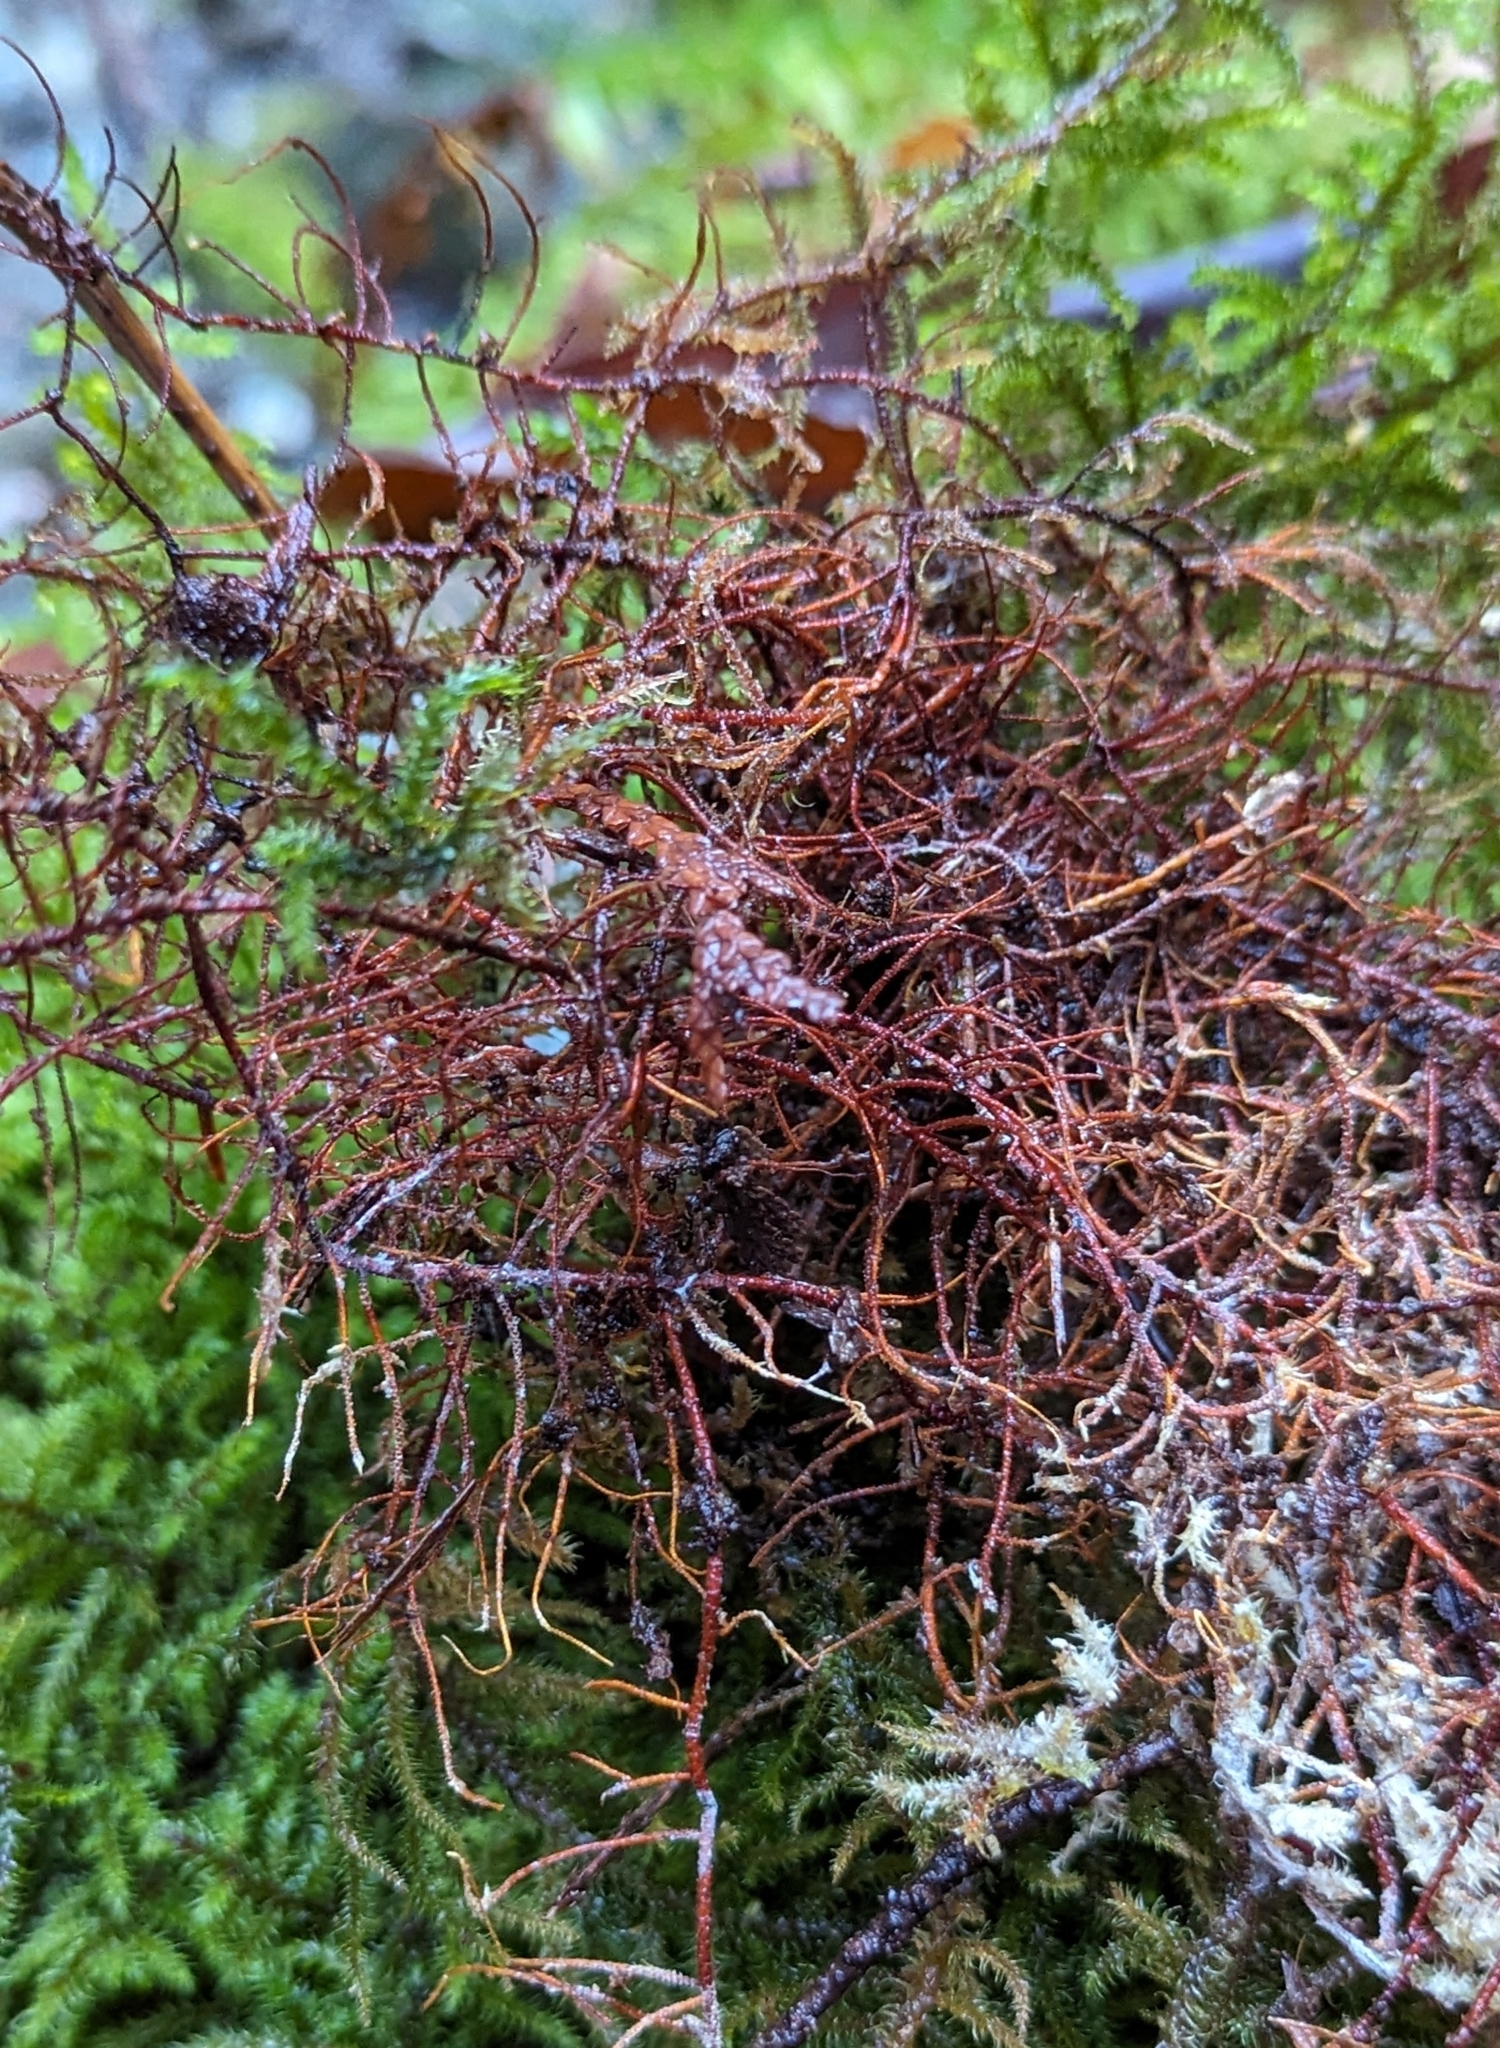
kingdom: Plantae
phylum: Bryophyta
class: Bryopsida
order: Hypnales
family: Hylocomiaceae
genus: Rhytidiadelphus
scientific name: Rhytidiadelphus loreus
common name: Lanky moss
